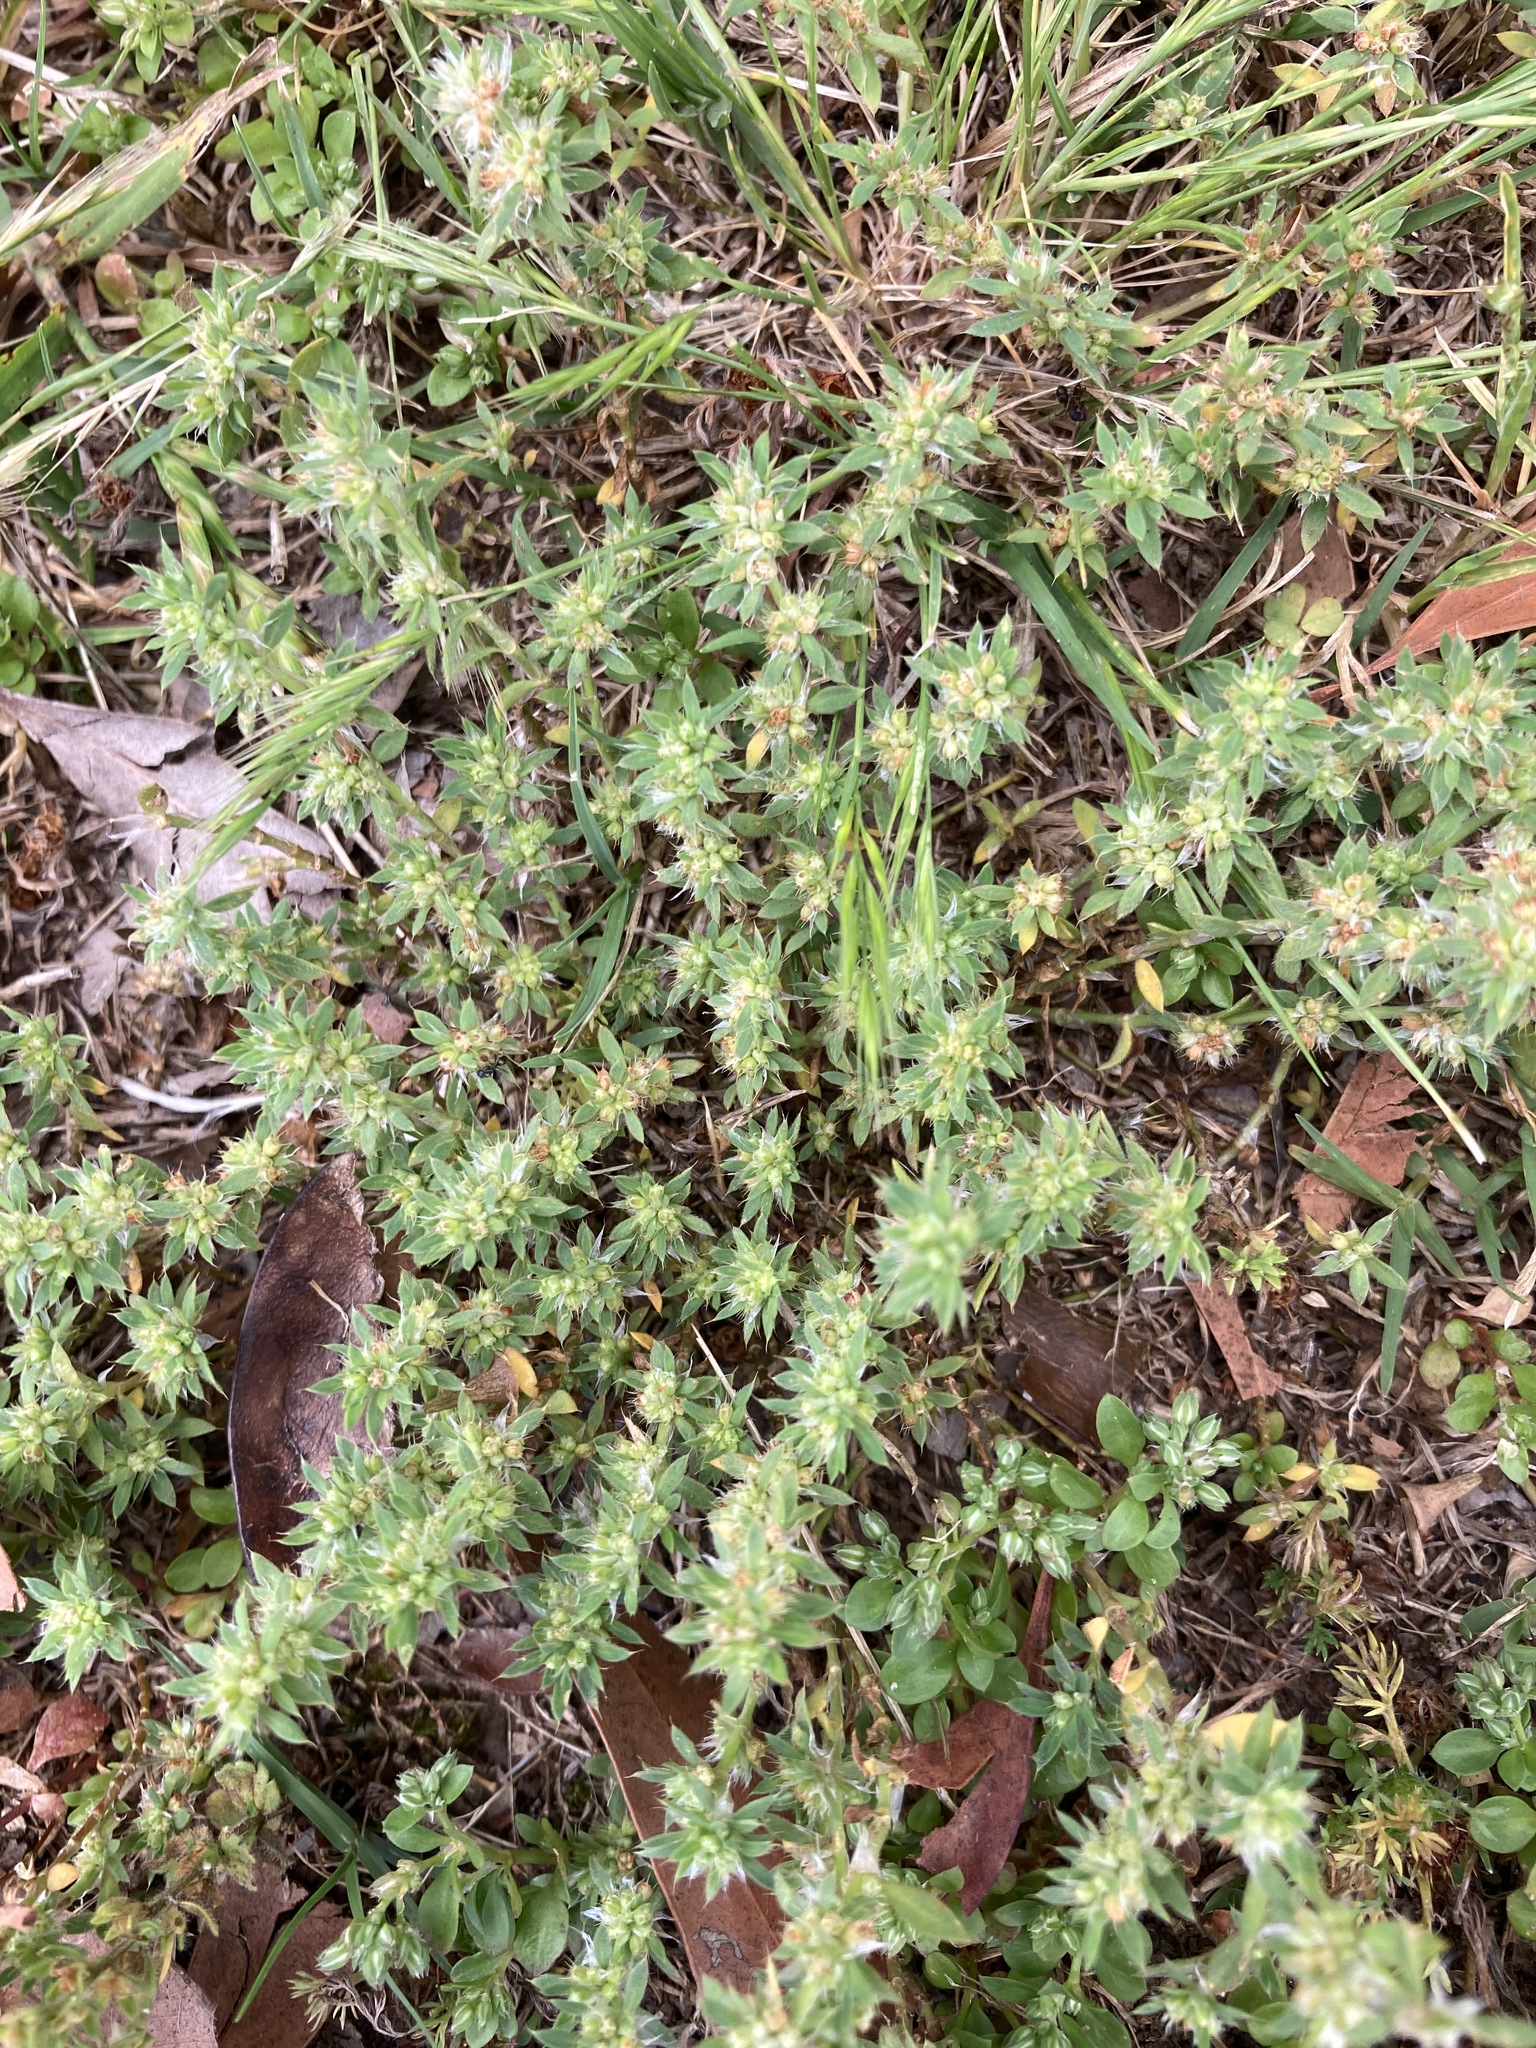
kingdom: Plantae
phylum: Tracheophyta
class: Magnoliopsida
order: Caryophyllales
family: Caryophyllaceae
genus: Paronychia
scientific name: Paronychia brasiliana
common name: Brazilian whitlow
